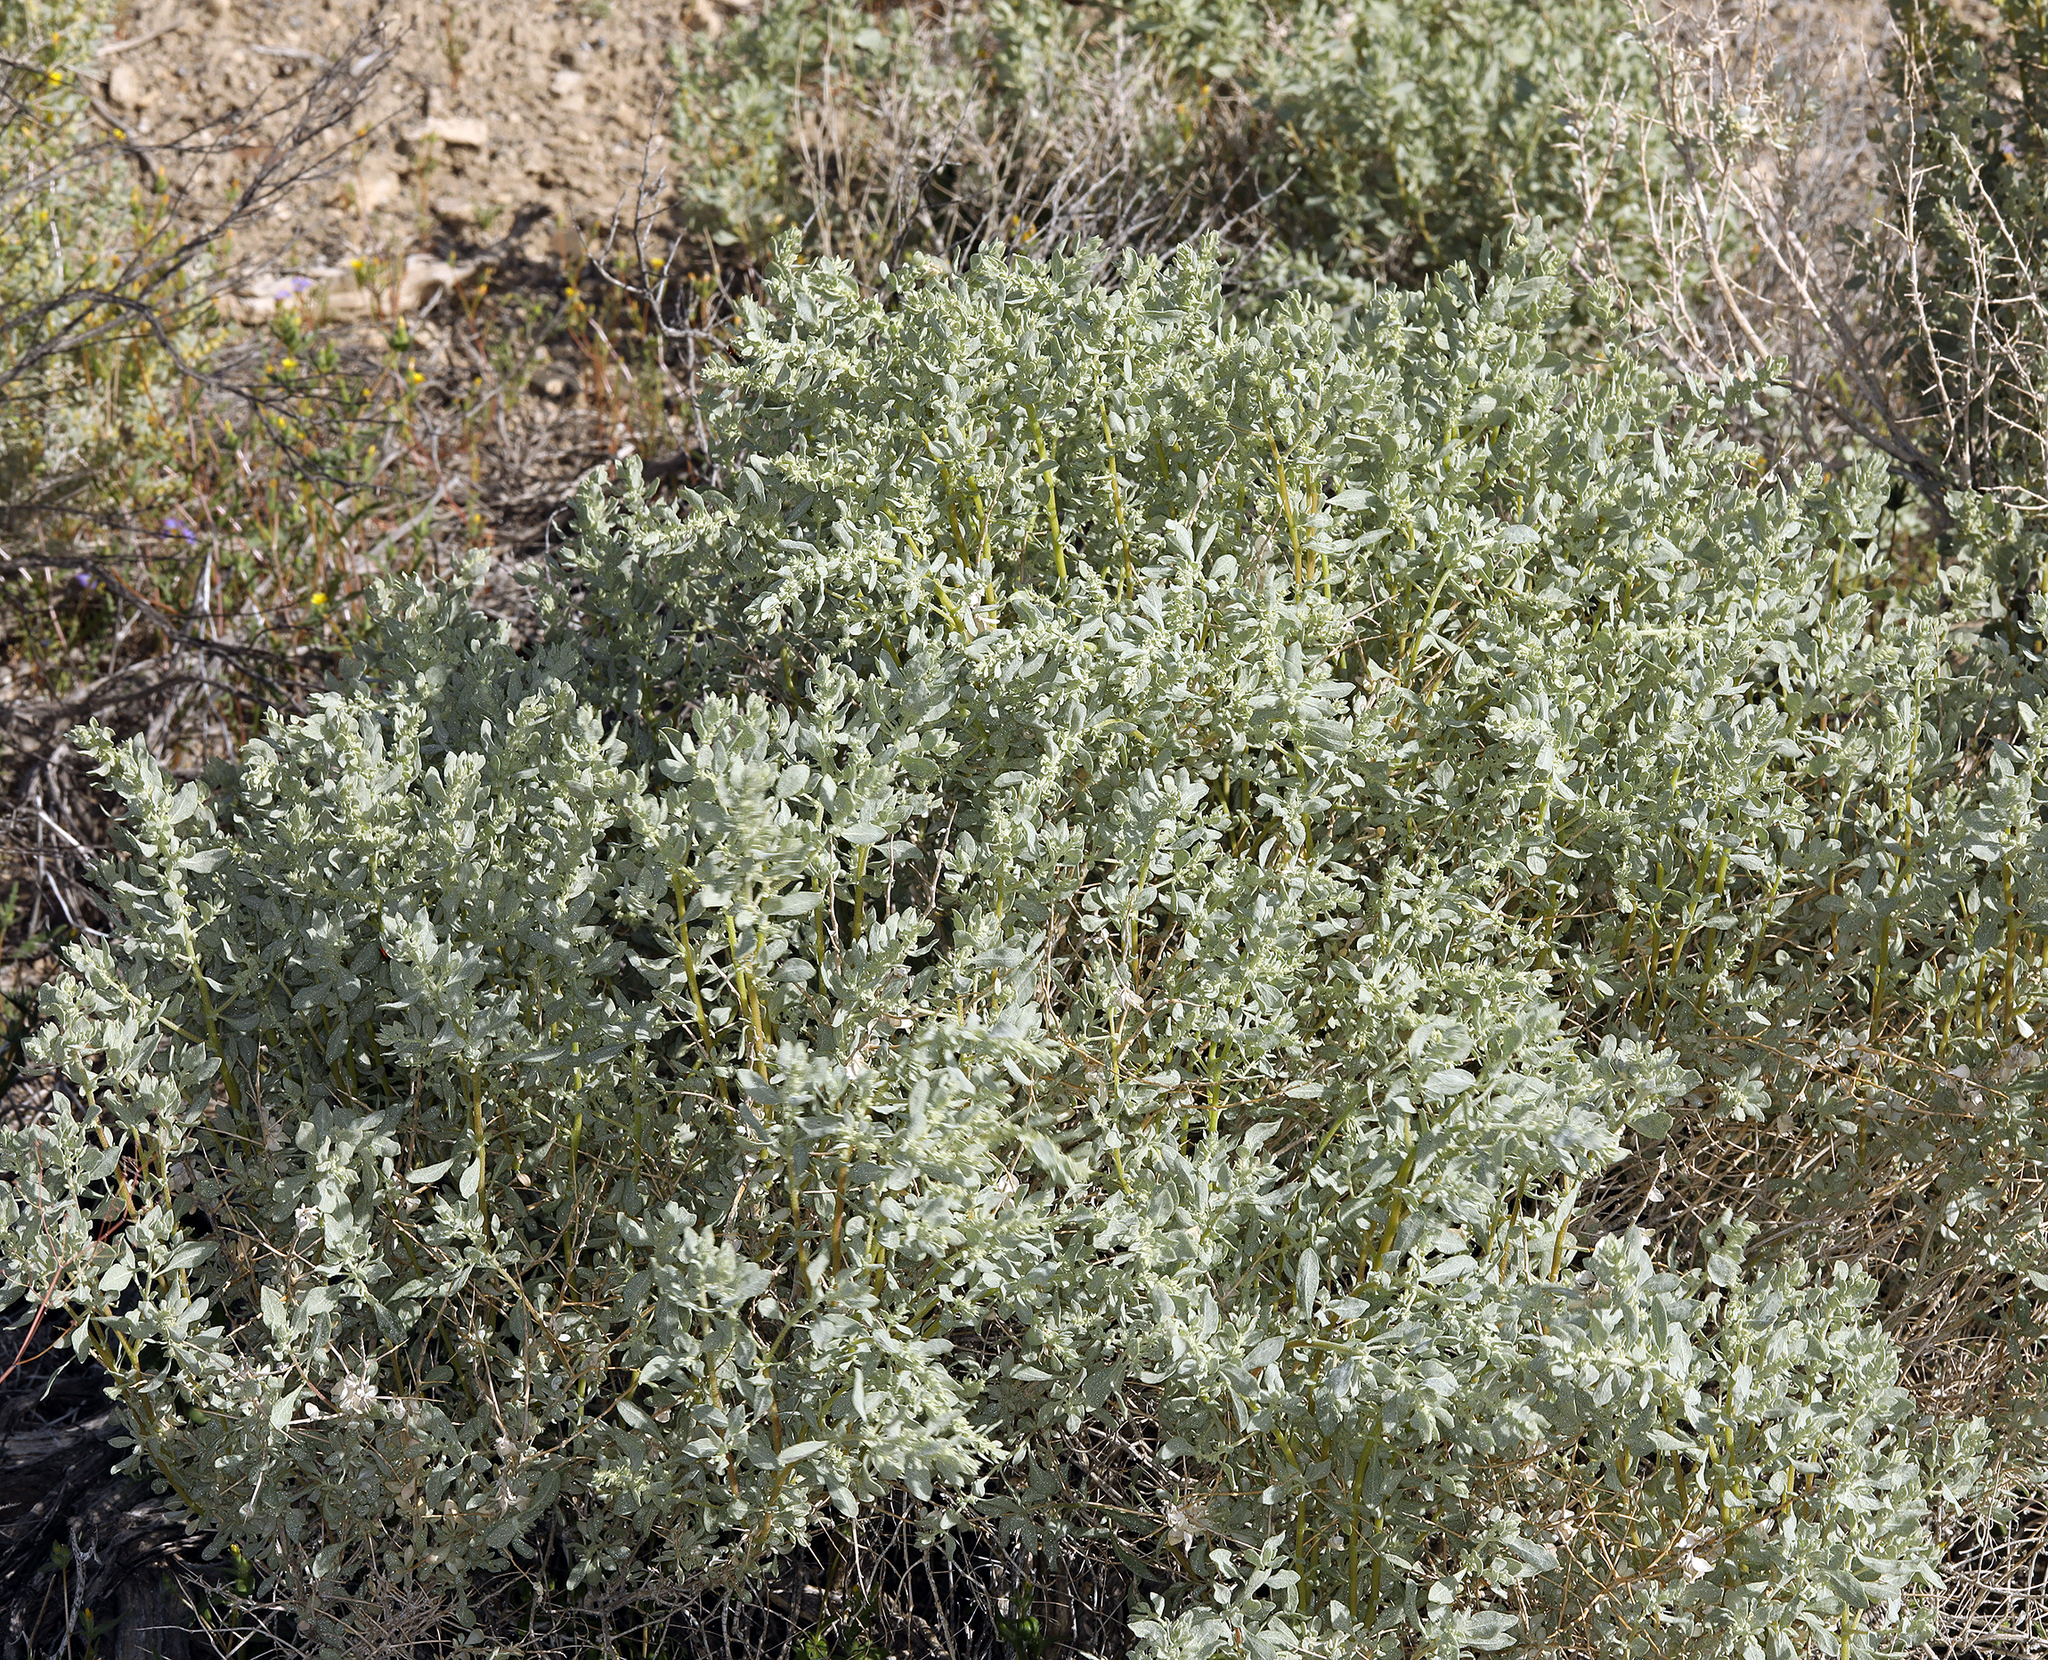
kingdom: Plantae
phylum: Tracheophyta
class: Magnoliopsida
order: Caryophyllales
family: Amaranthaceae
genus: Atriplex
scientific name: Atriplex confertifolia
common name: Shadscale
